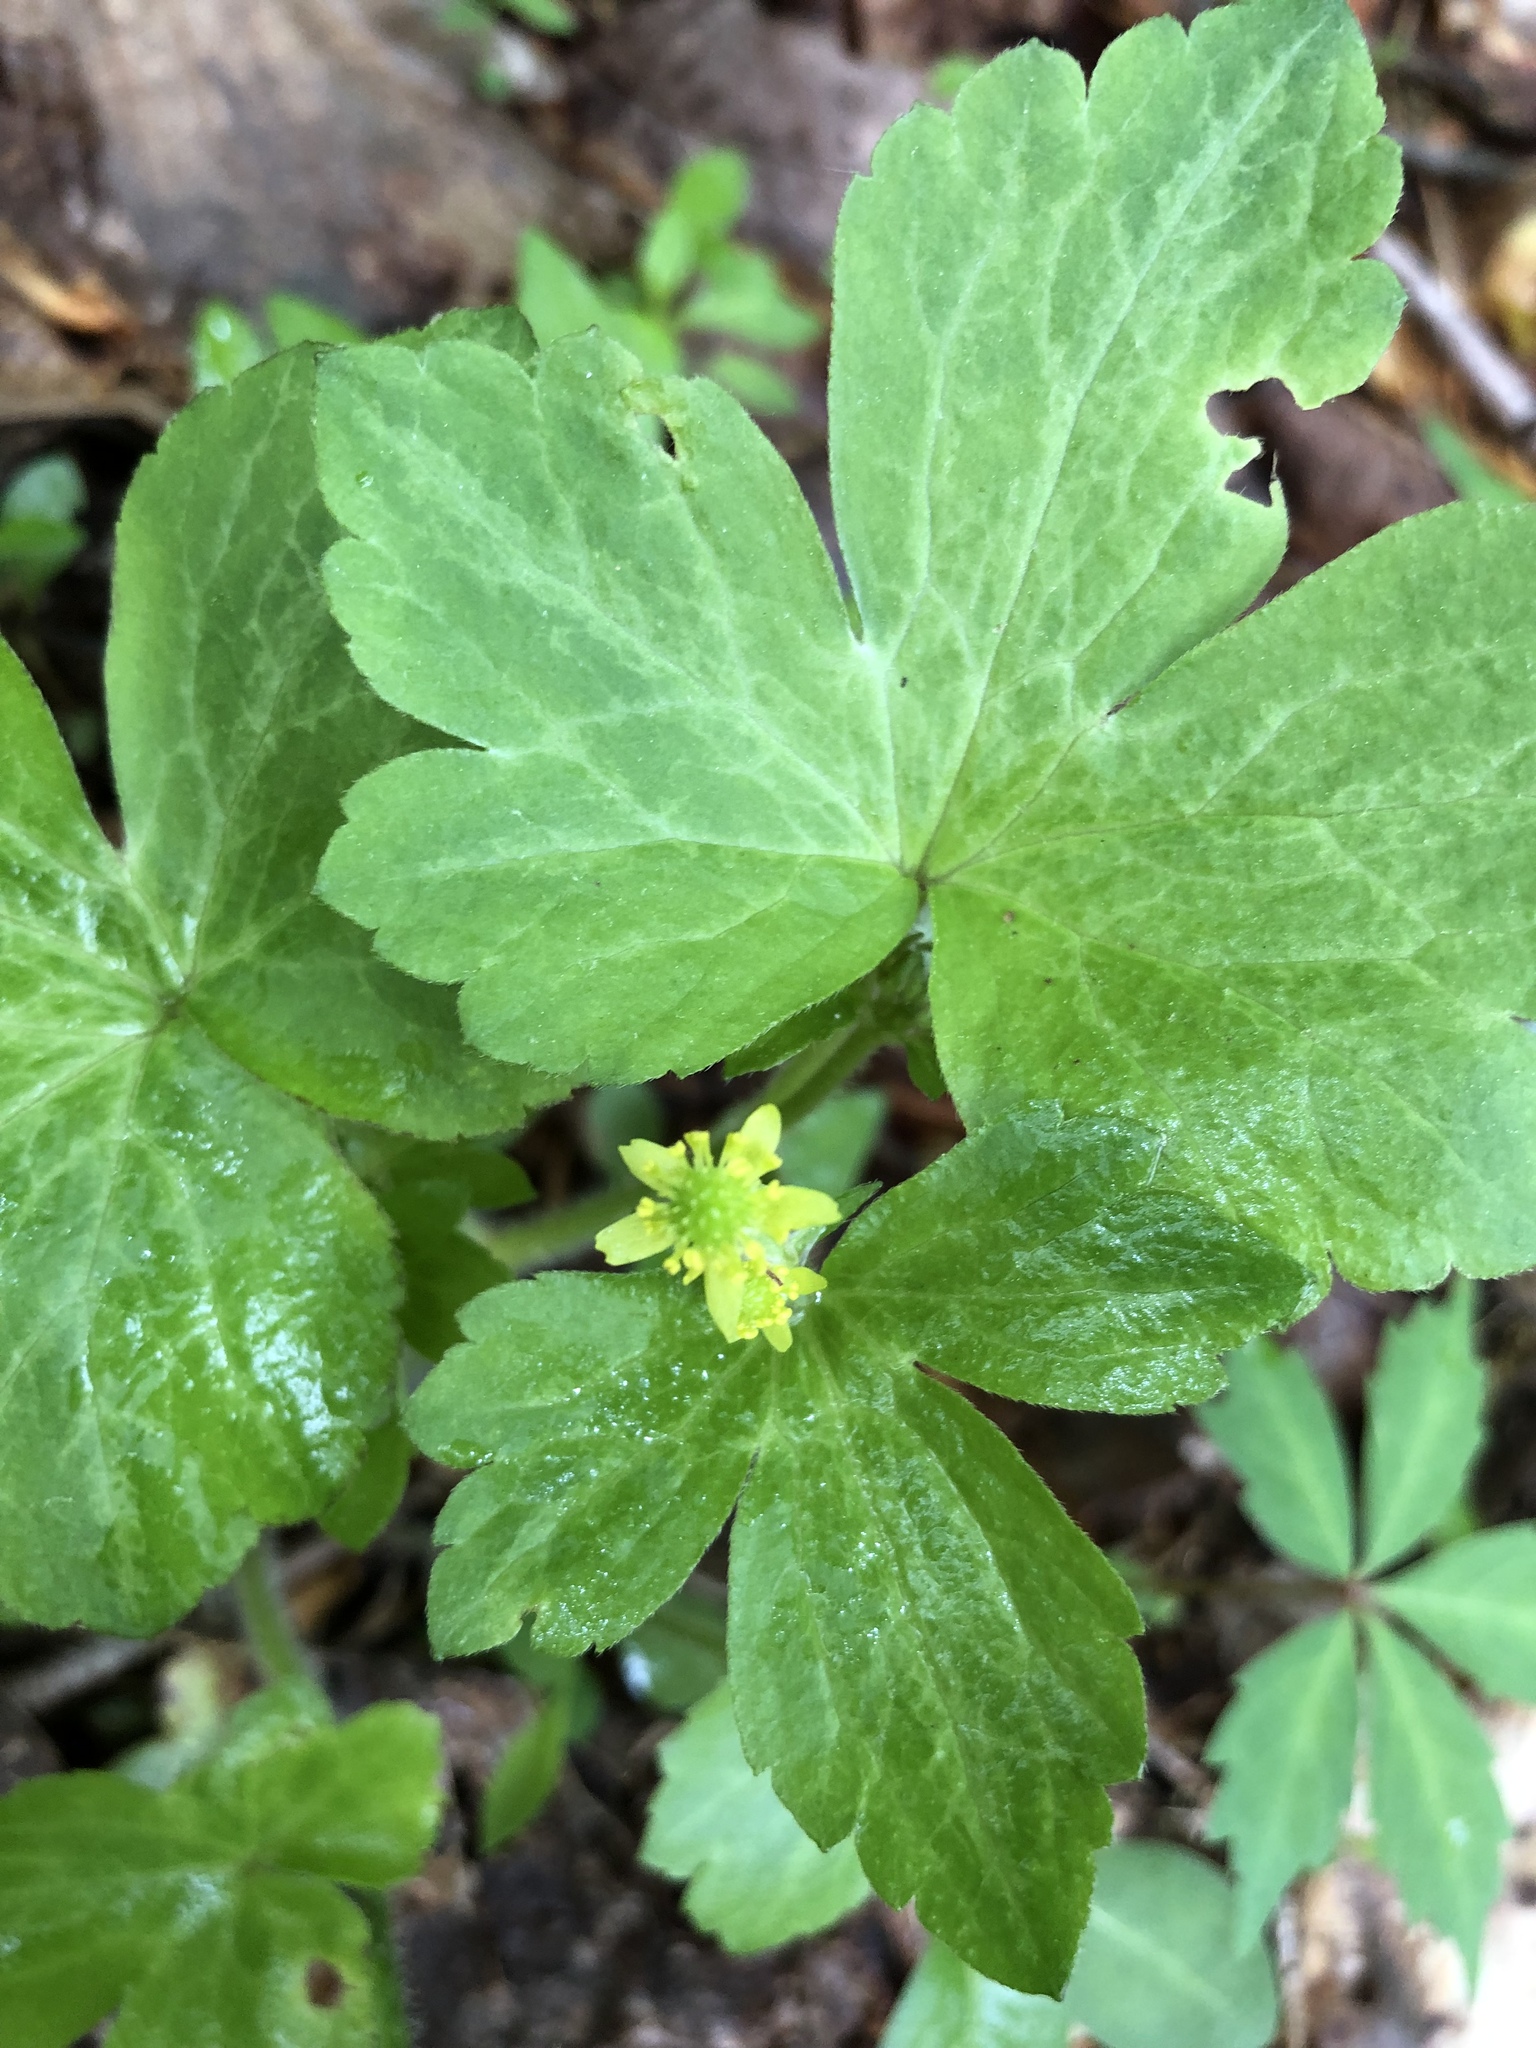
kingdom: Plantae
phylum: Tracheophyta
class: Magnoliopsida
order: Ranunculales
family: Ranunculaceae
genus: Ranunculus
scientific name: Ranunculus recurvatus
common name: Blisterwort
